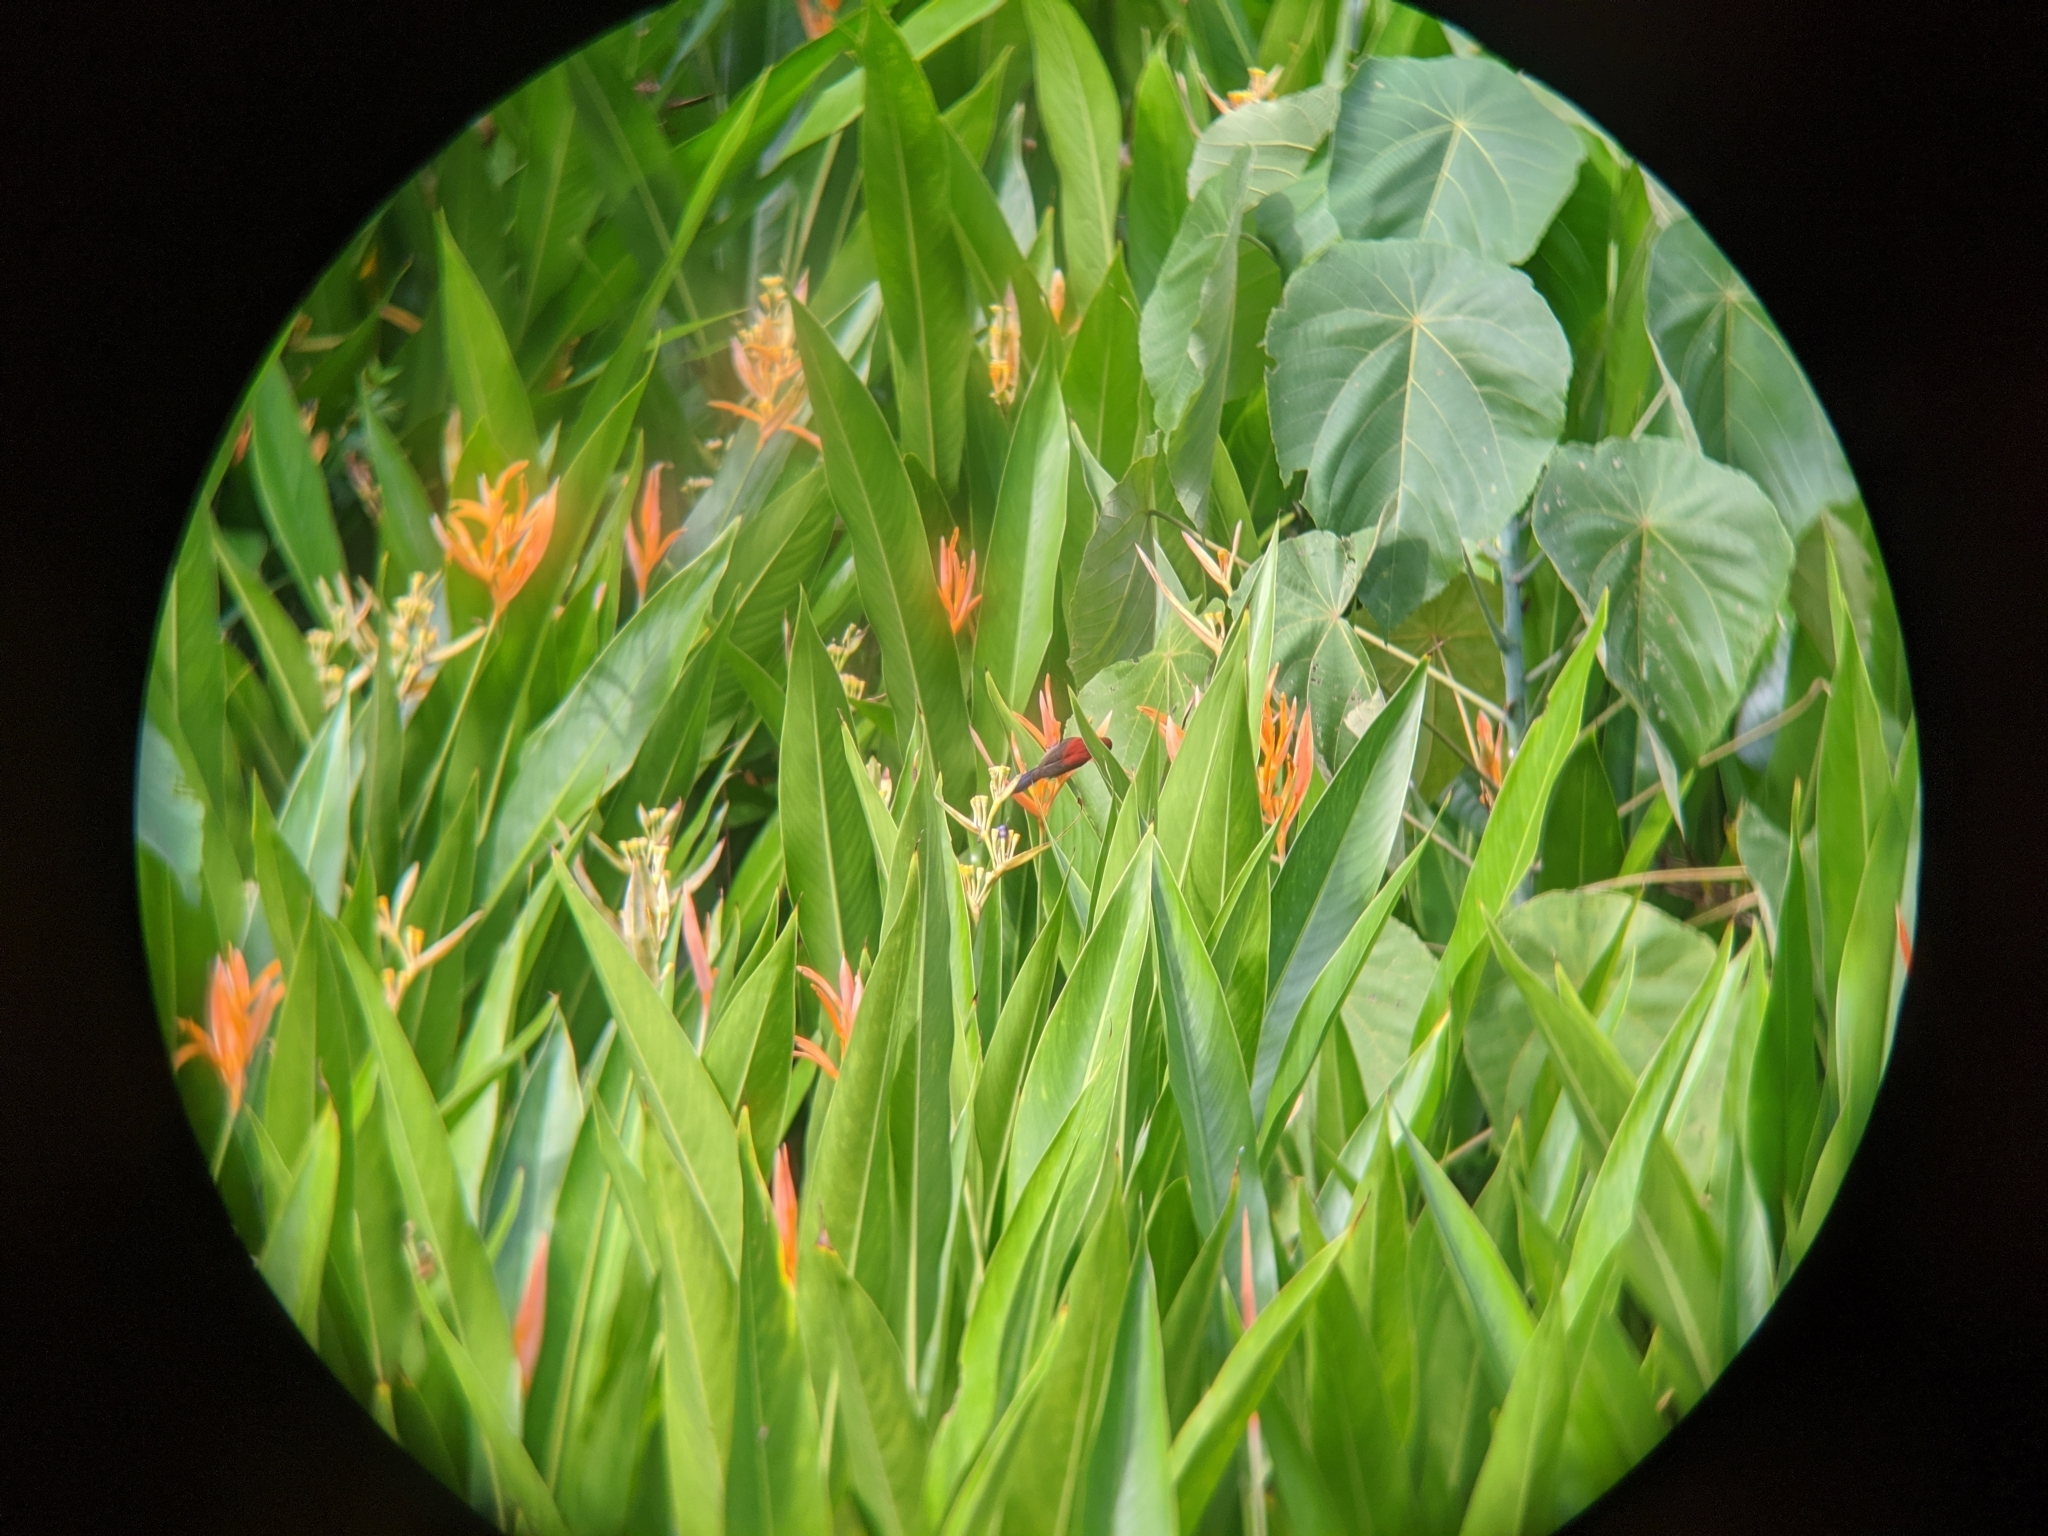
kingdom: Animalia
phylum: Chordata
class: Aves
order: Passeriformes
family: Nectariniidae
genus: Aethopyga
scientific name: Aethopyga siparaja
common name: Crimson sunbird
